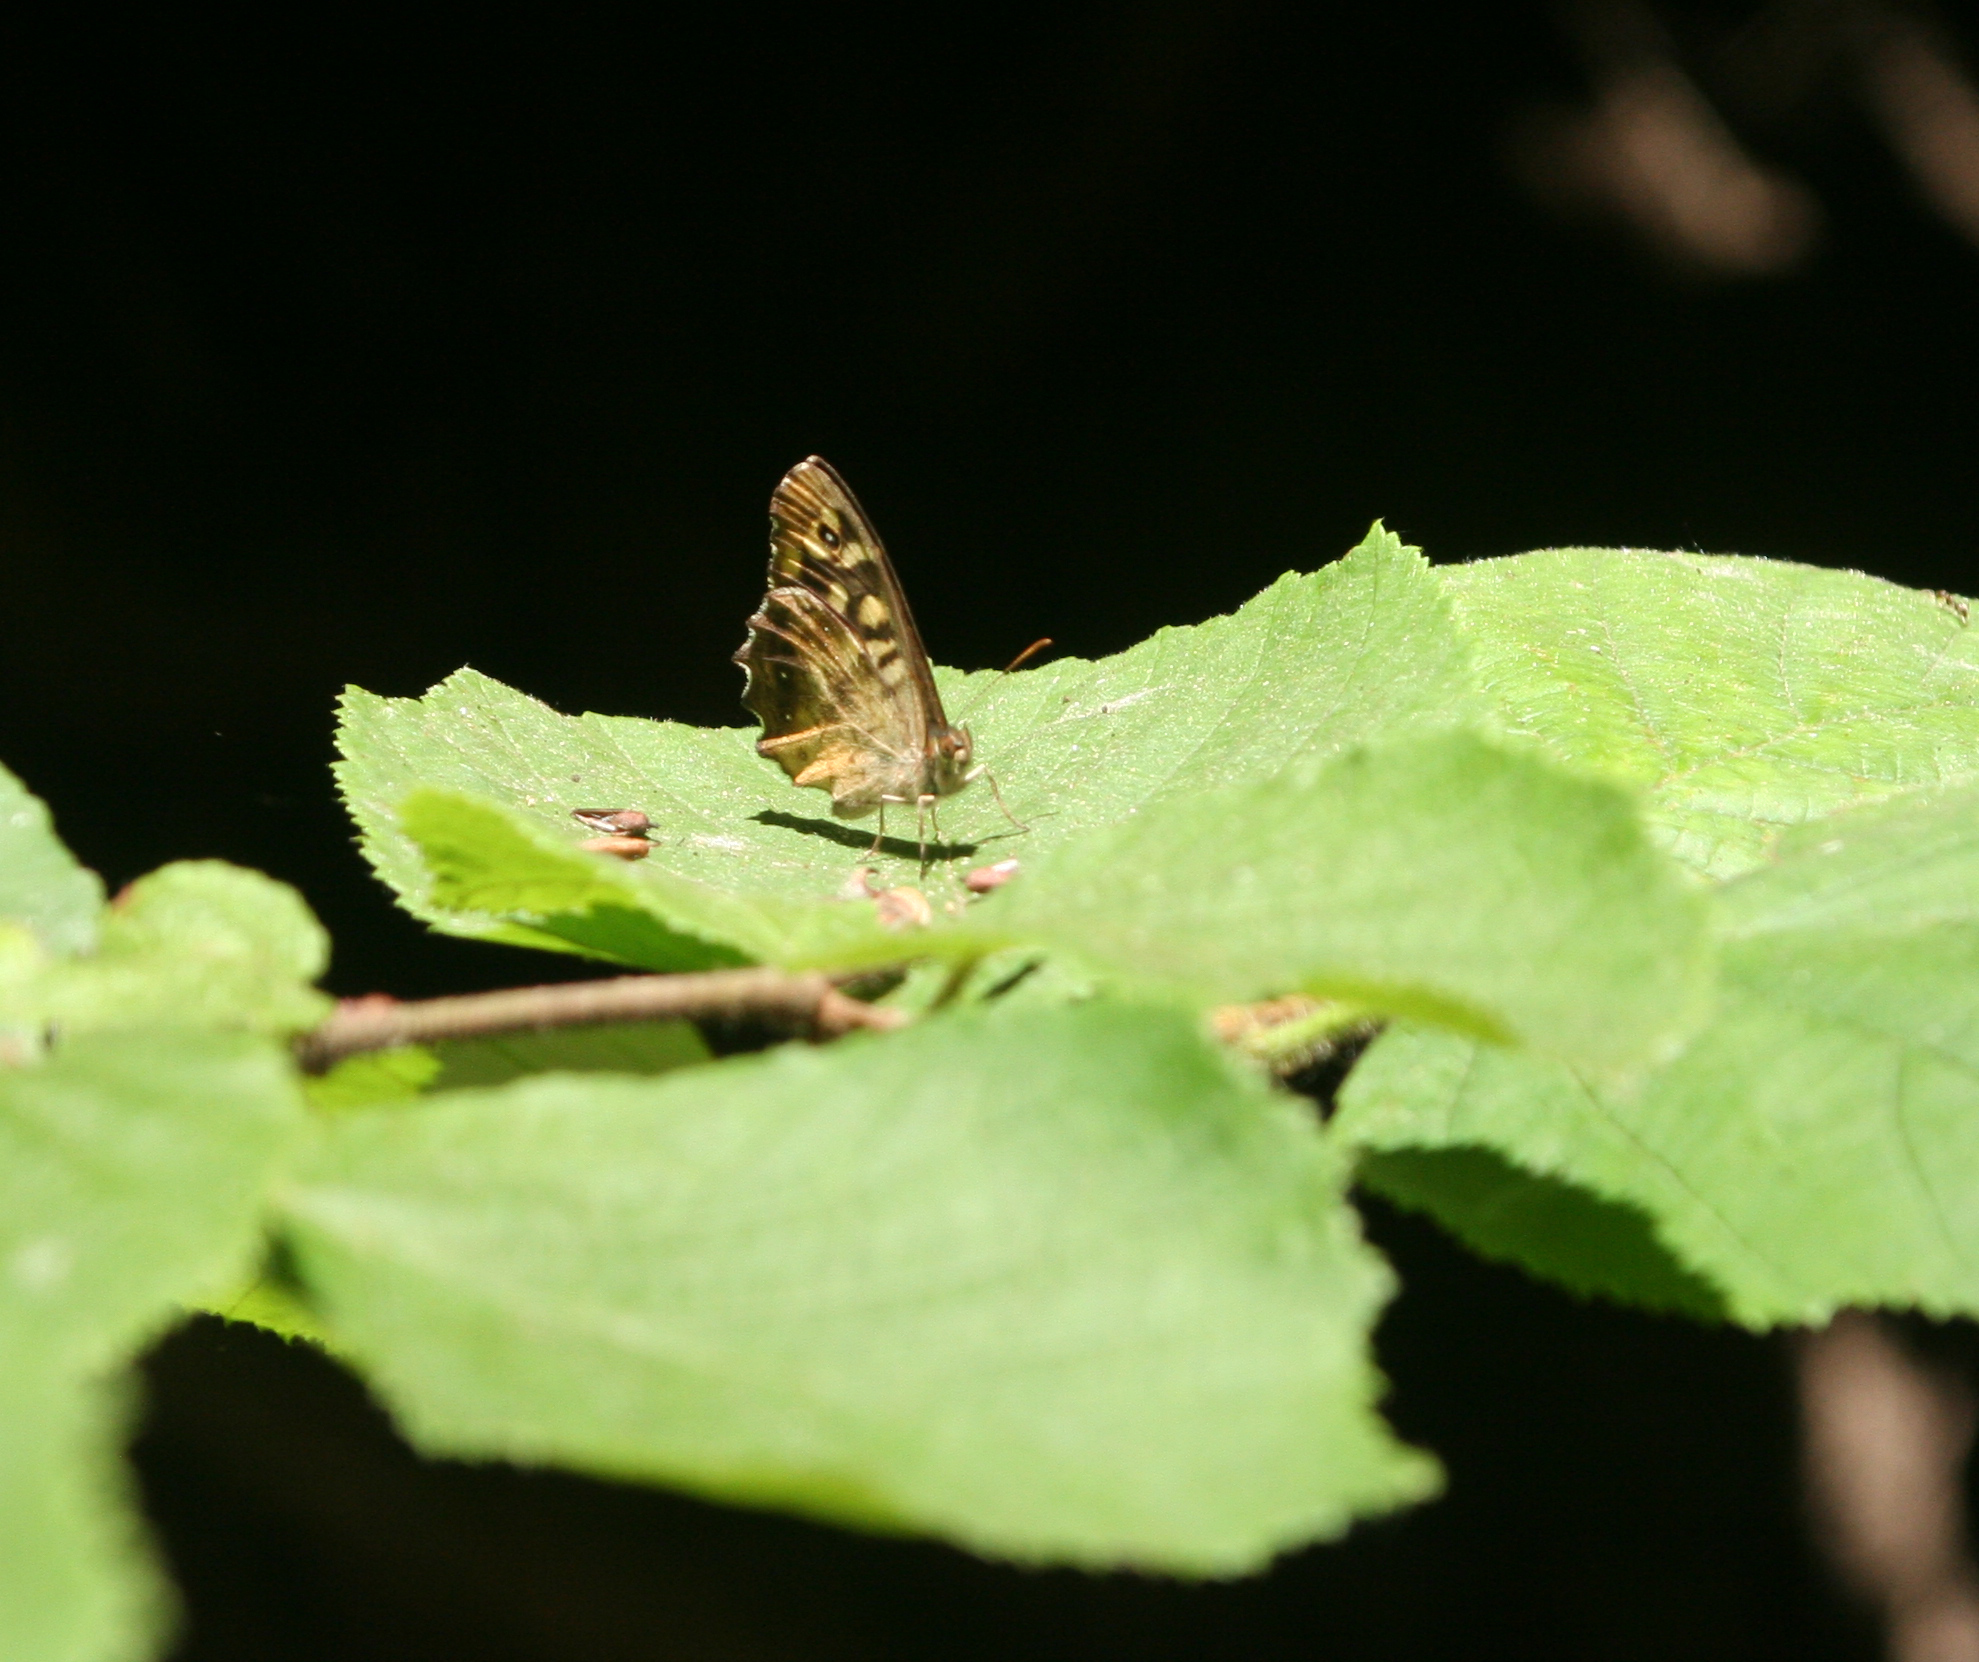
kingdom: Animalia
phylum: Arthropoda
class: Insecta
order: Lepidoptera
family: Nymphalidae
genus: Pararge
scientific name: Pararge aegeria
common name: Speckled wood
